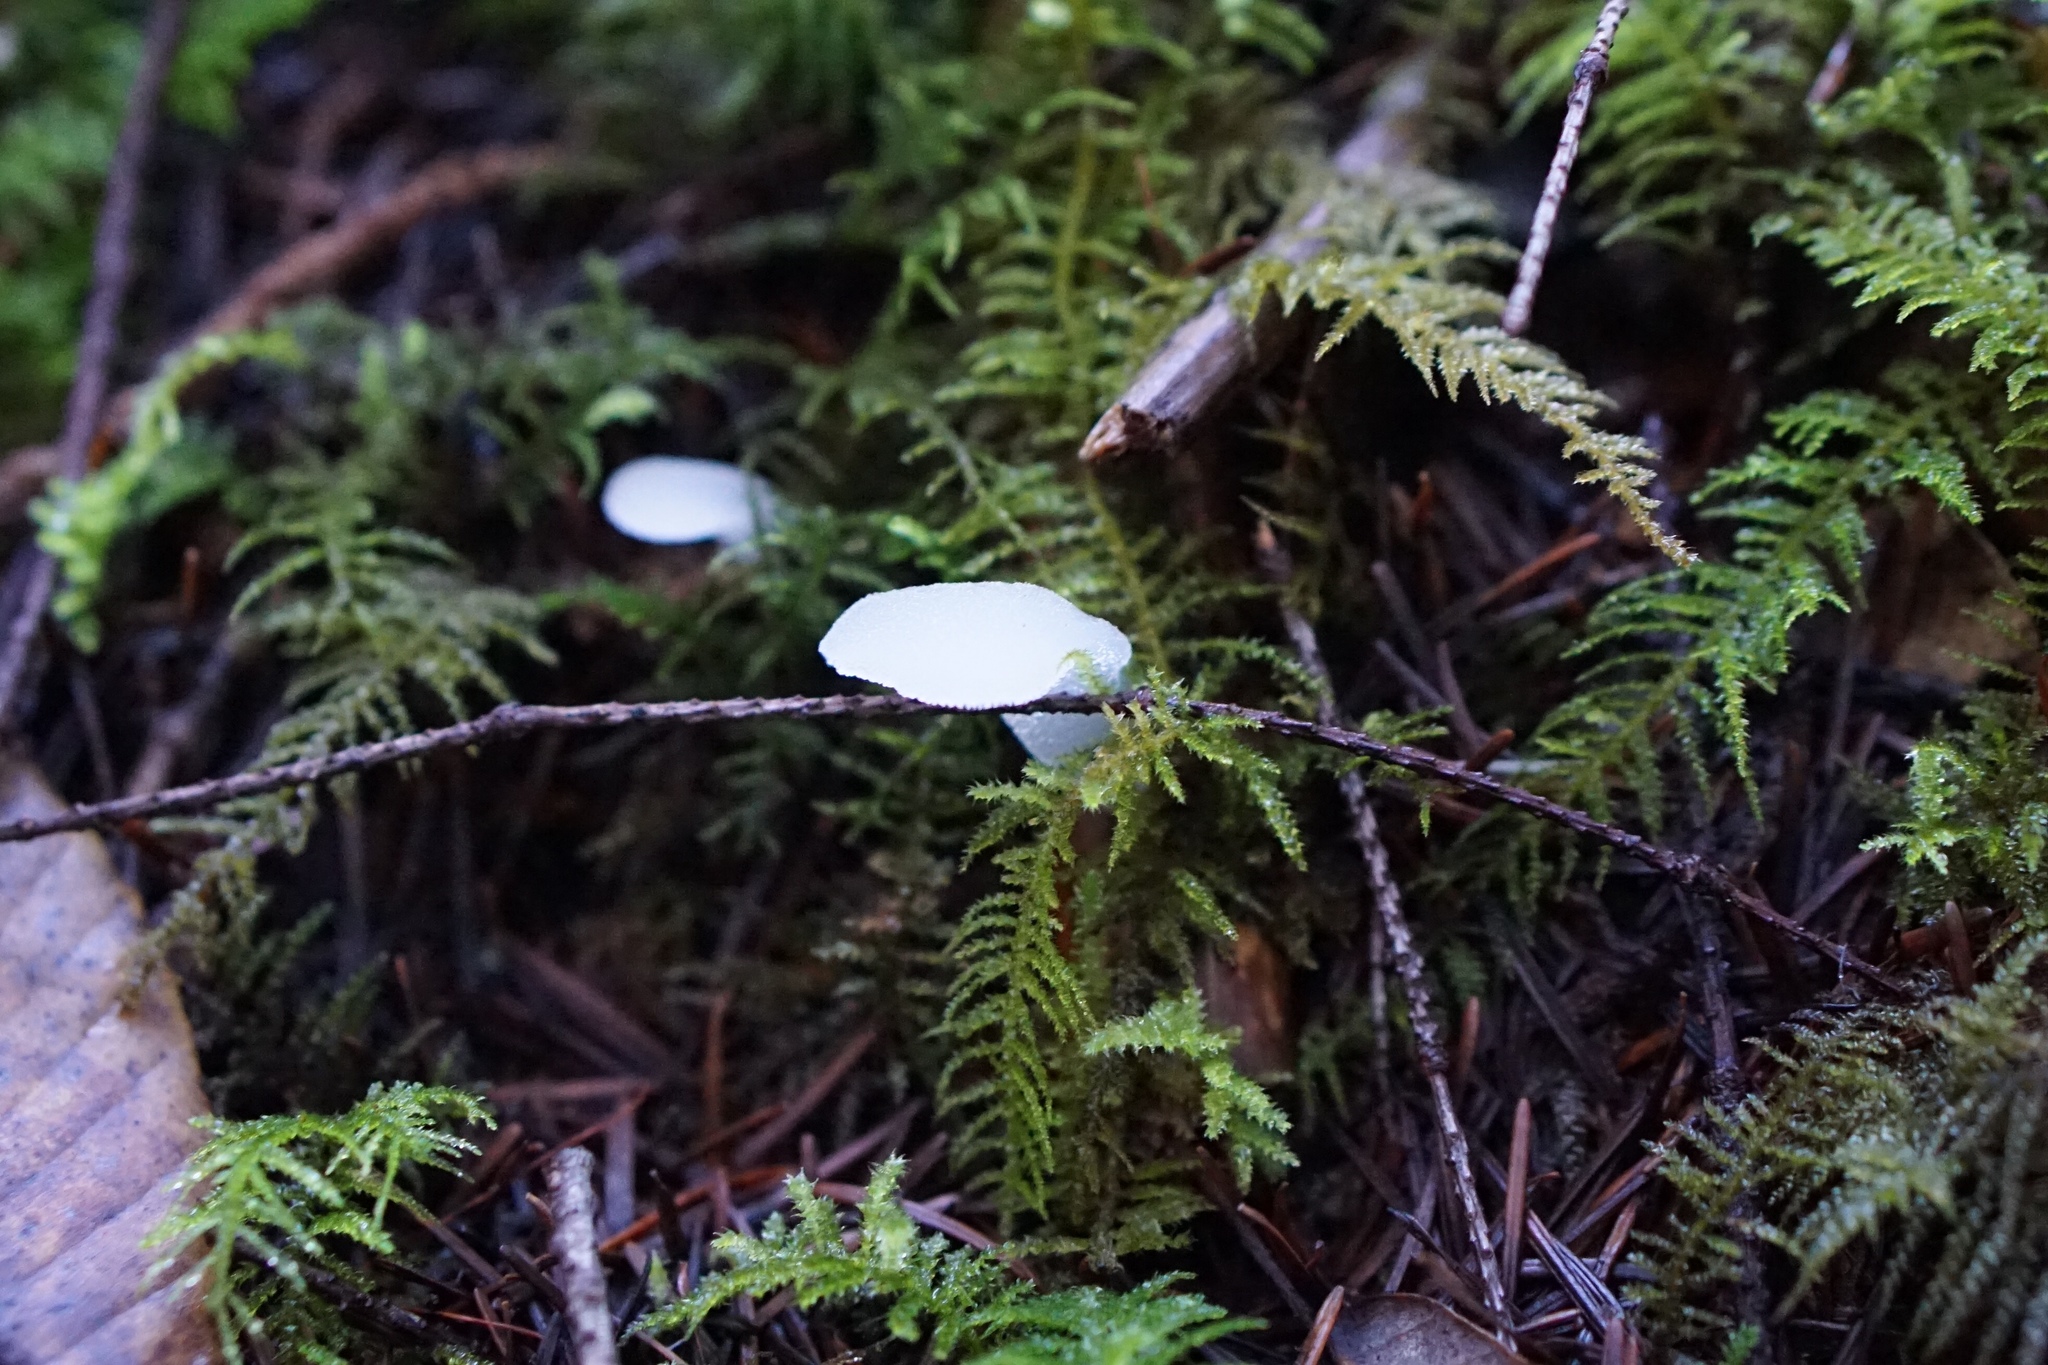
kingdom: Fungi
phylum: Basidiomycota
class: Agaricomycetes
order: Auriculariales
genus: Pseudohydnum
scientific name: Pseudohydnum gelatinosum
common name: Jelly tongue
